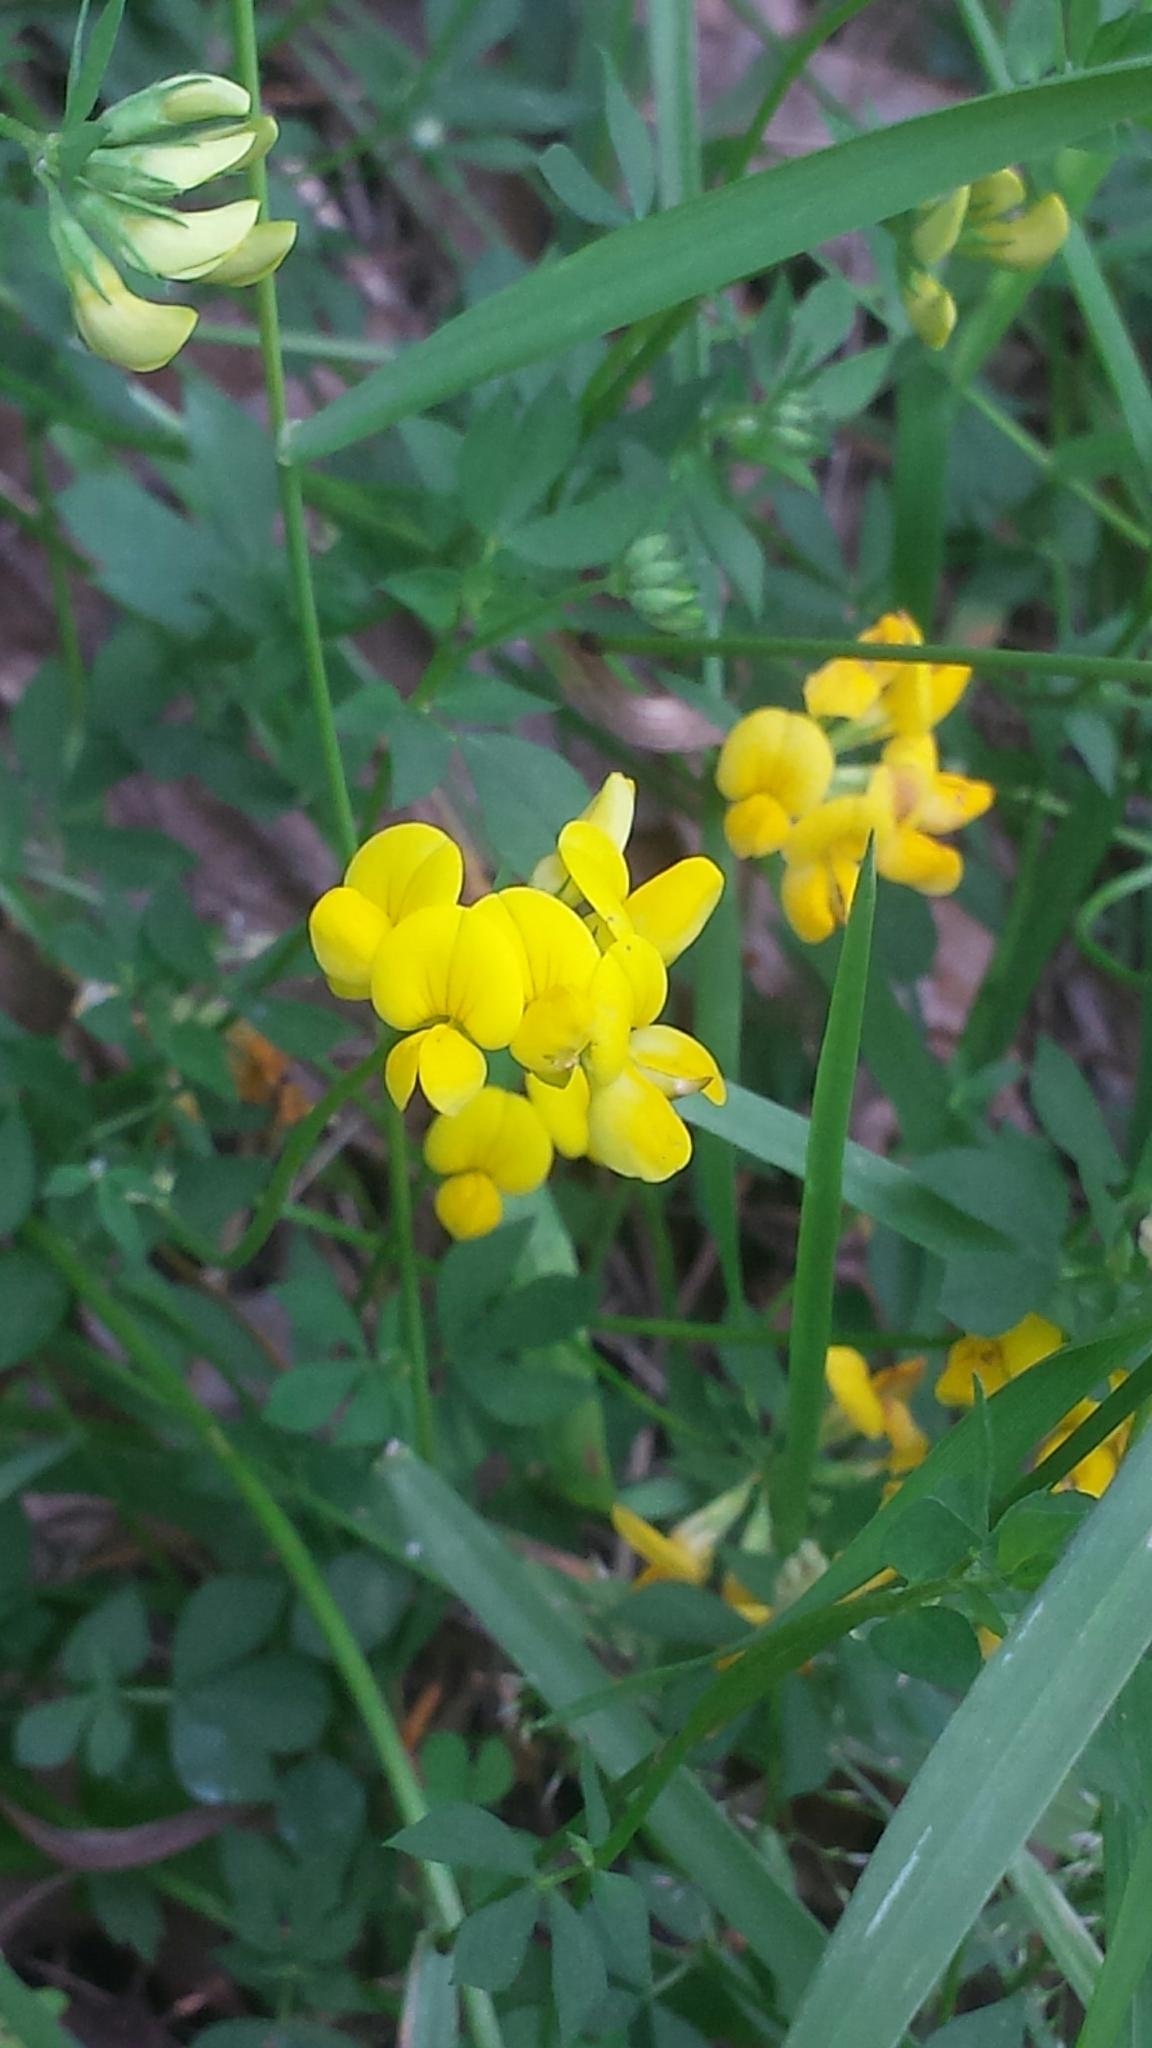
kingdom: Plantae
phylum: Tracheophyta
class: Magnoliopsida
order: Fabales
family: Fabaceae
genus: Lotus
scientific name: Lotus corniculatus
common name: Common bird's-foot-trefoil
